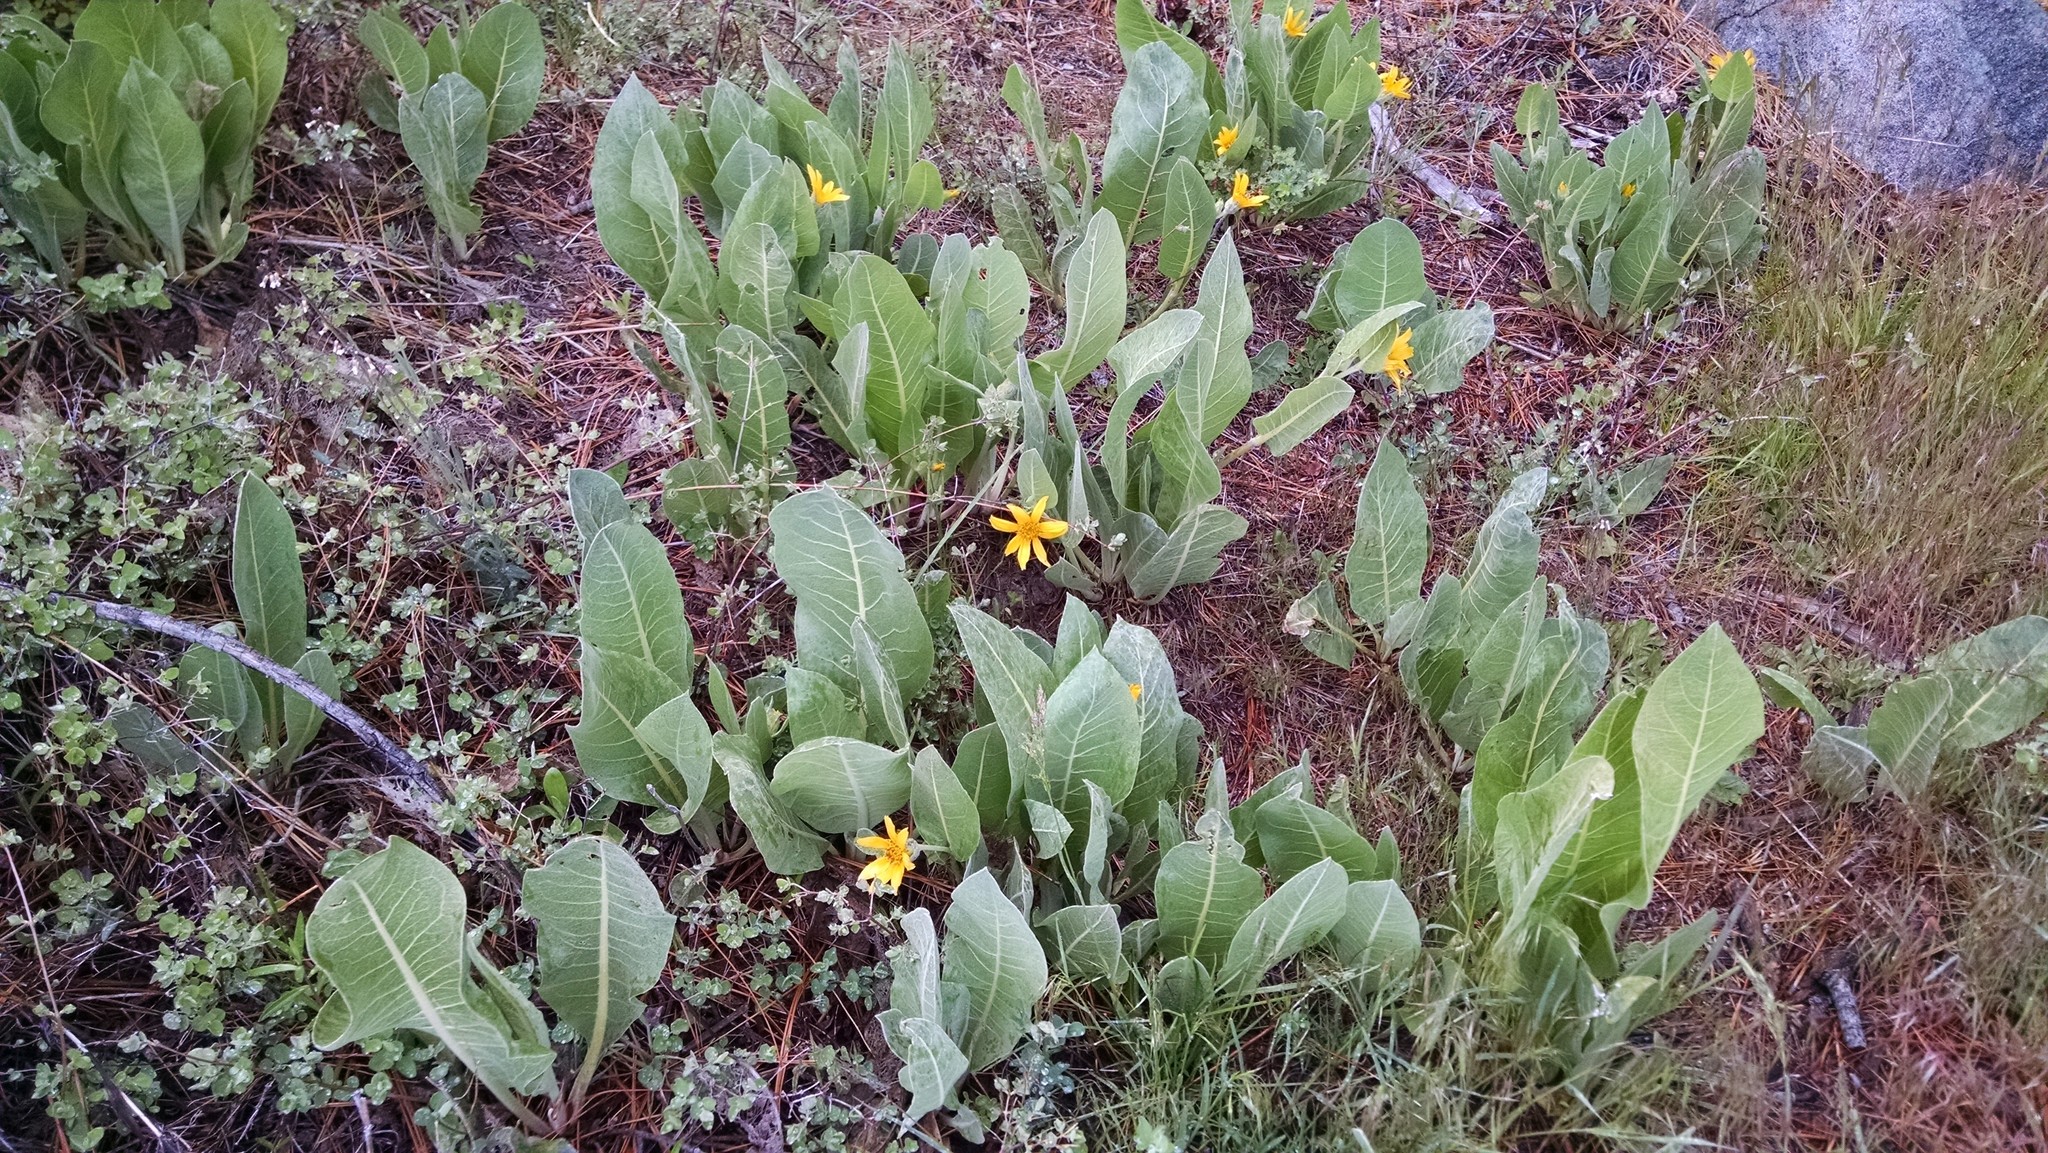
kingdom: Plantae
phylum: Tracheophyta
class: Magnoliopsida
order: Asterales
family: Asteraceae
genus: Wyethia
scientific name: Wyethia mollis
